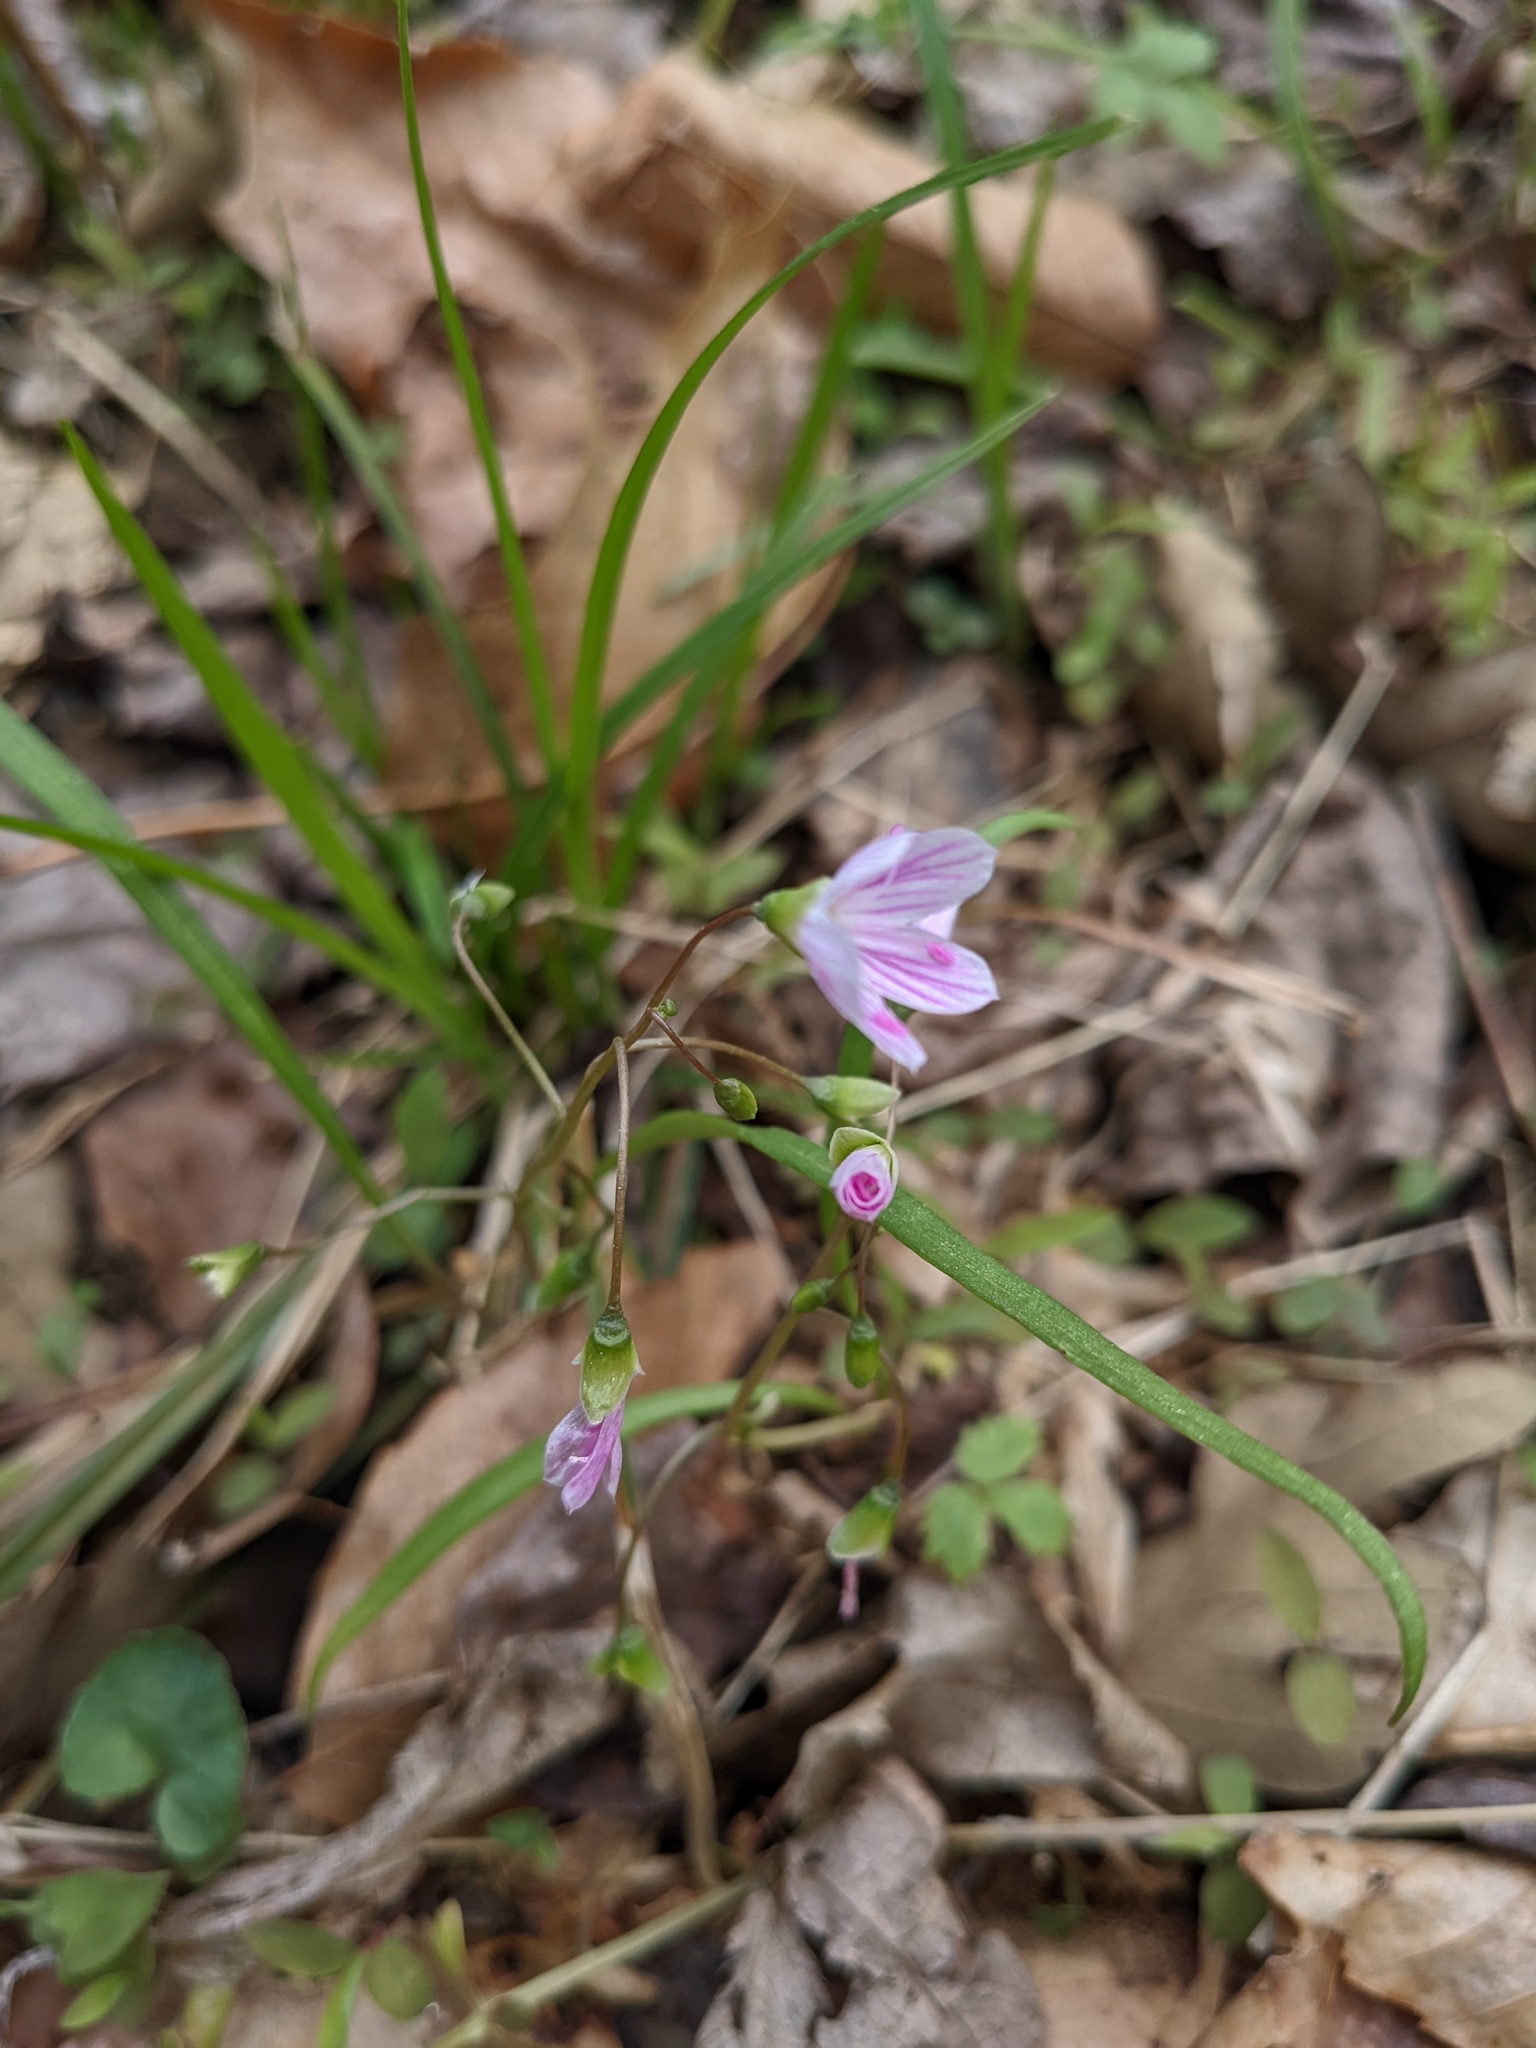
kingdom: Plantae
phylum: Tracheophyta
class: Magnoliopsida
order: Caryophyllales
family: Montiaceae
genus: Claytonia
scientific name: Claytonia virginica
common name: Virginia springbeauty
